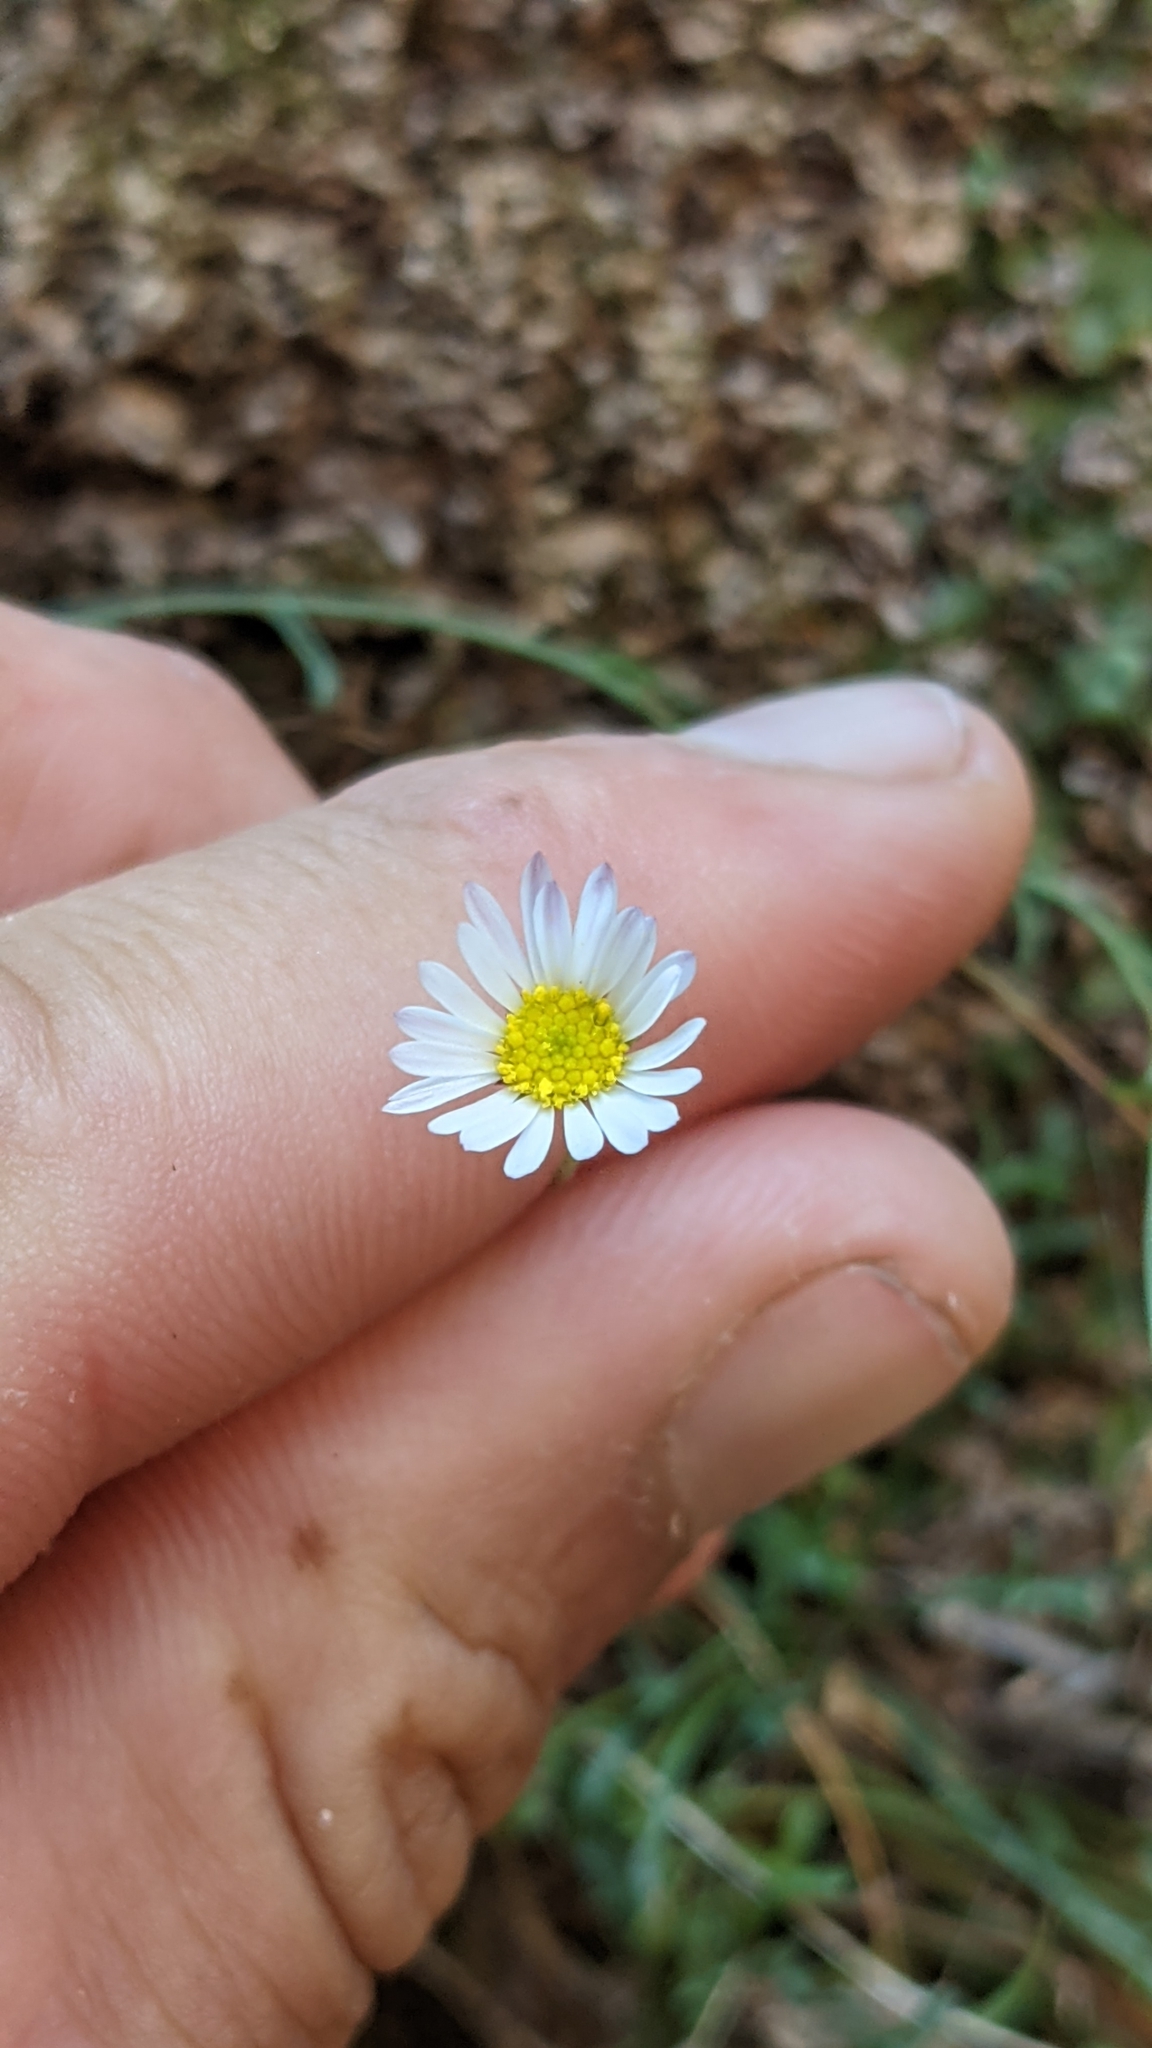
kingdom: Plantae
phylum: Tracheophyta
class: Magnoliopsida
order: Asterales
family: Asteraceae
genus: Erigeron
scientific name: Erigeron sionis
